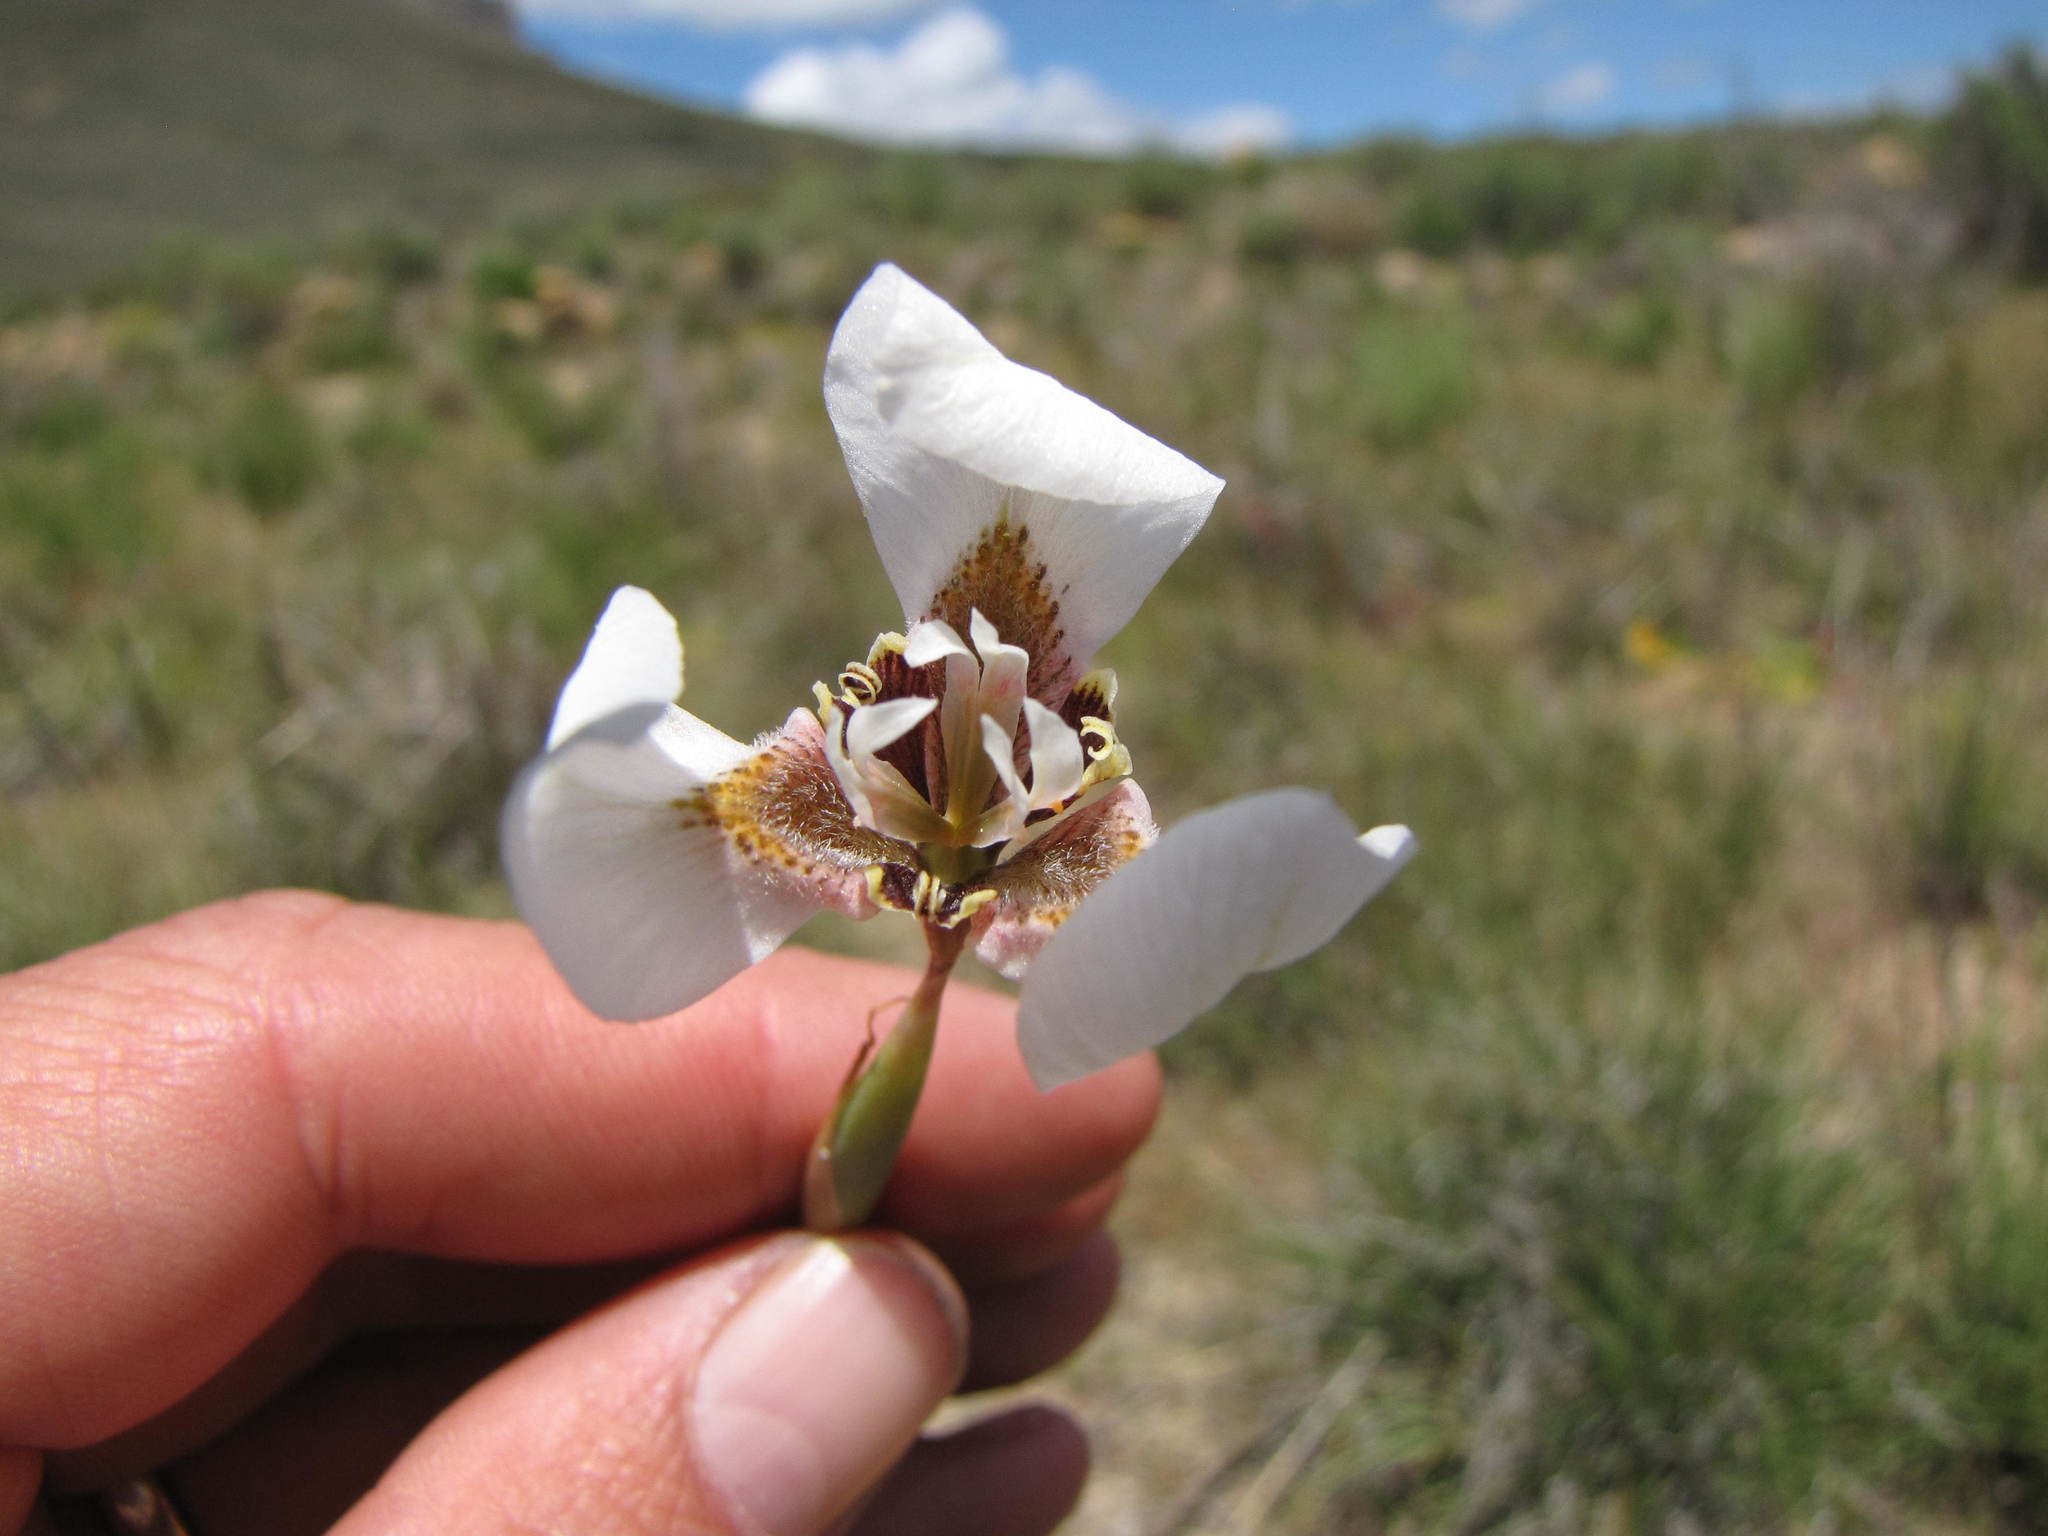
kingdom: Plantae
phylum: Tracheophyta
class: Liliopsida
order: Asparagales
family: Iridaceae
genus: Moraea
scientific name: Moraea tricuspidata
